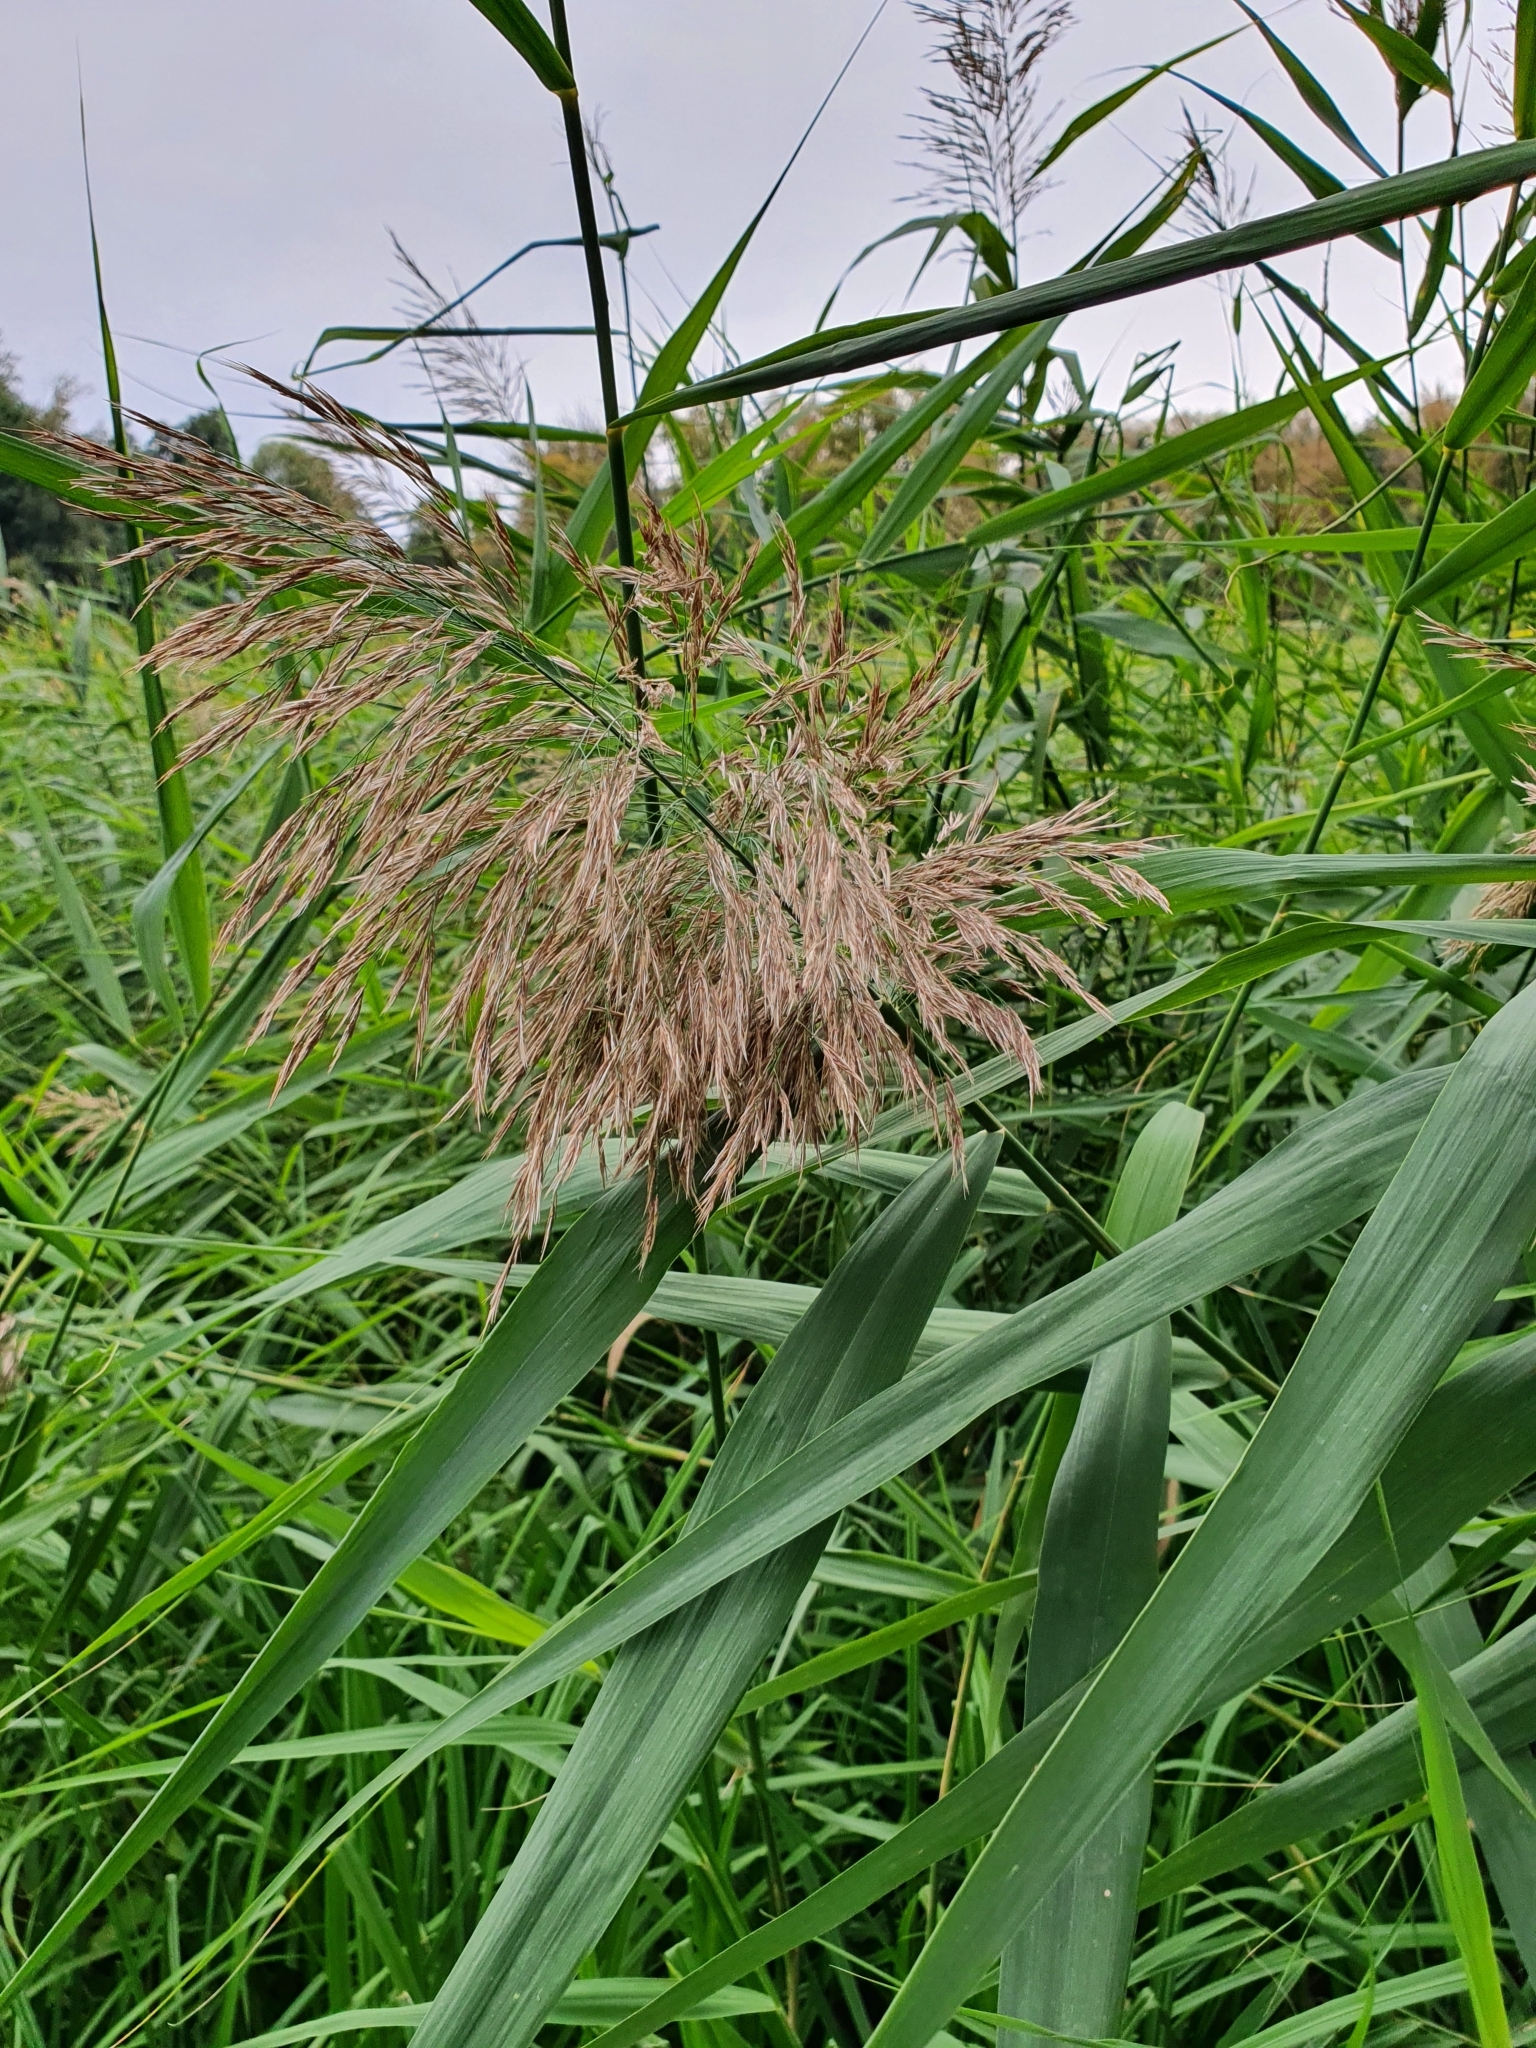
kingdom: Plantae
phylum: Tracheophyta
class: Liliopsida
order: Poales
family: Poaceae
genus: Phragmites
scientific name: Phragmites australis
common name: Common reed
